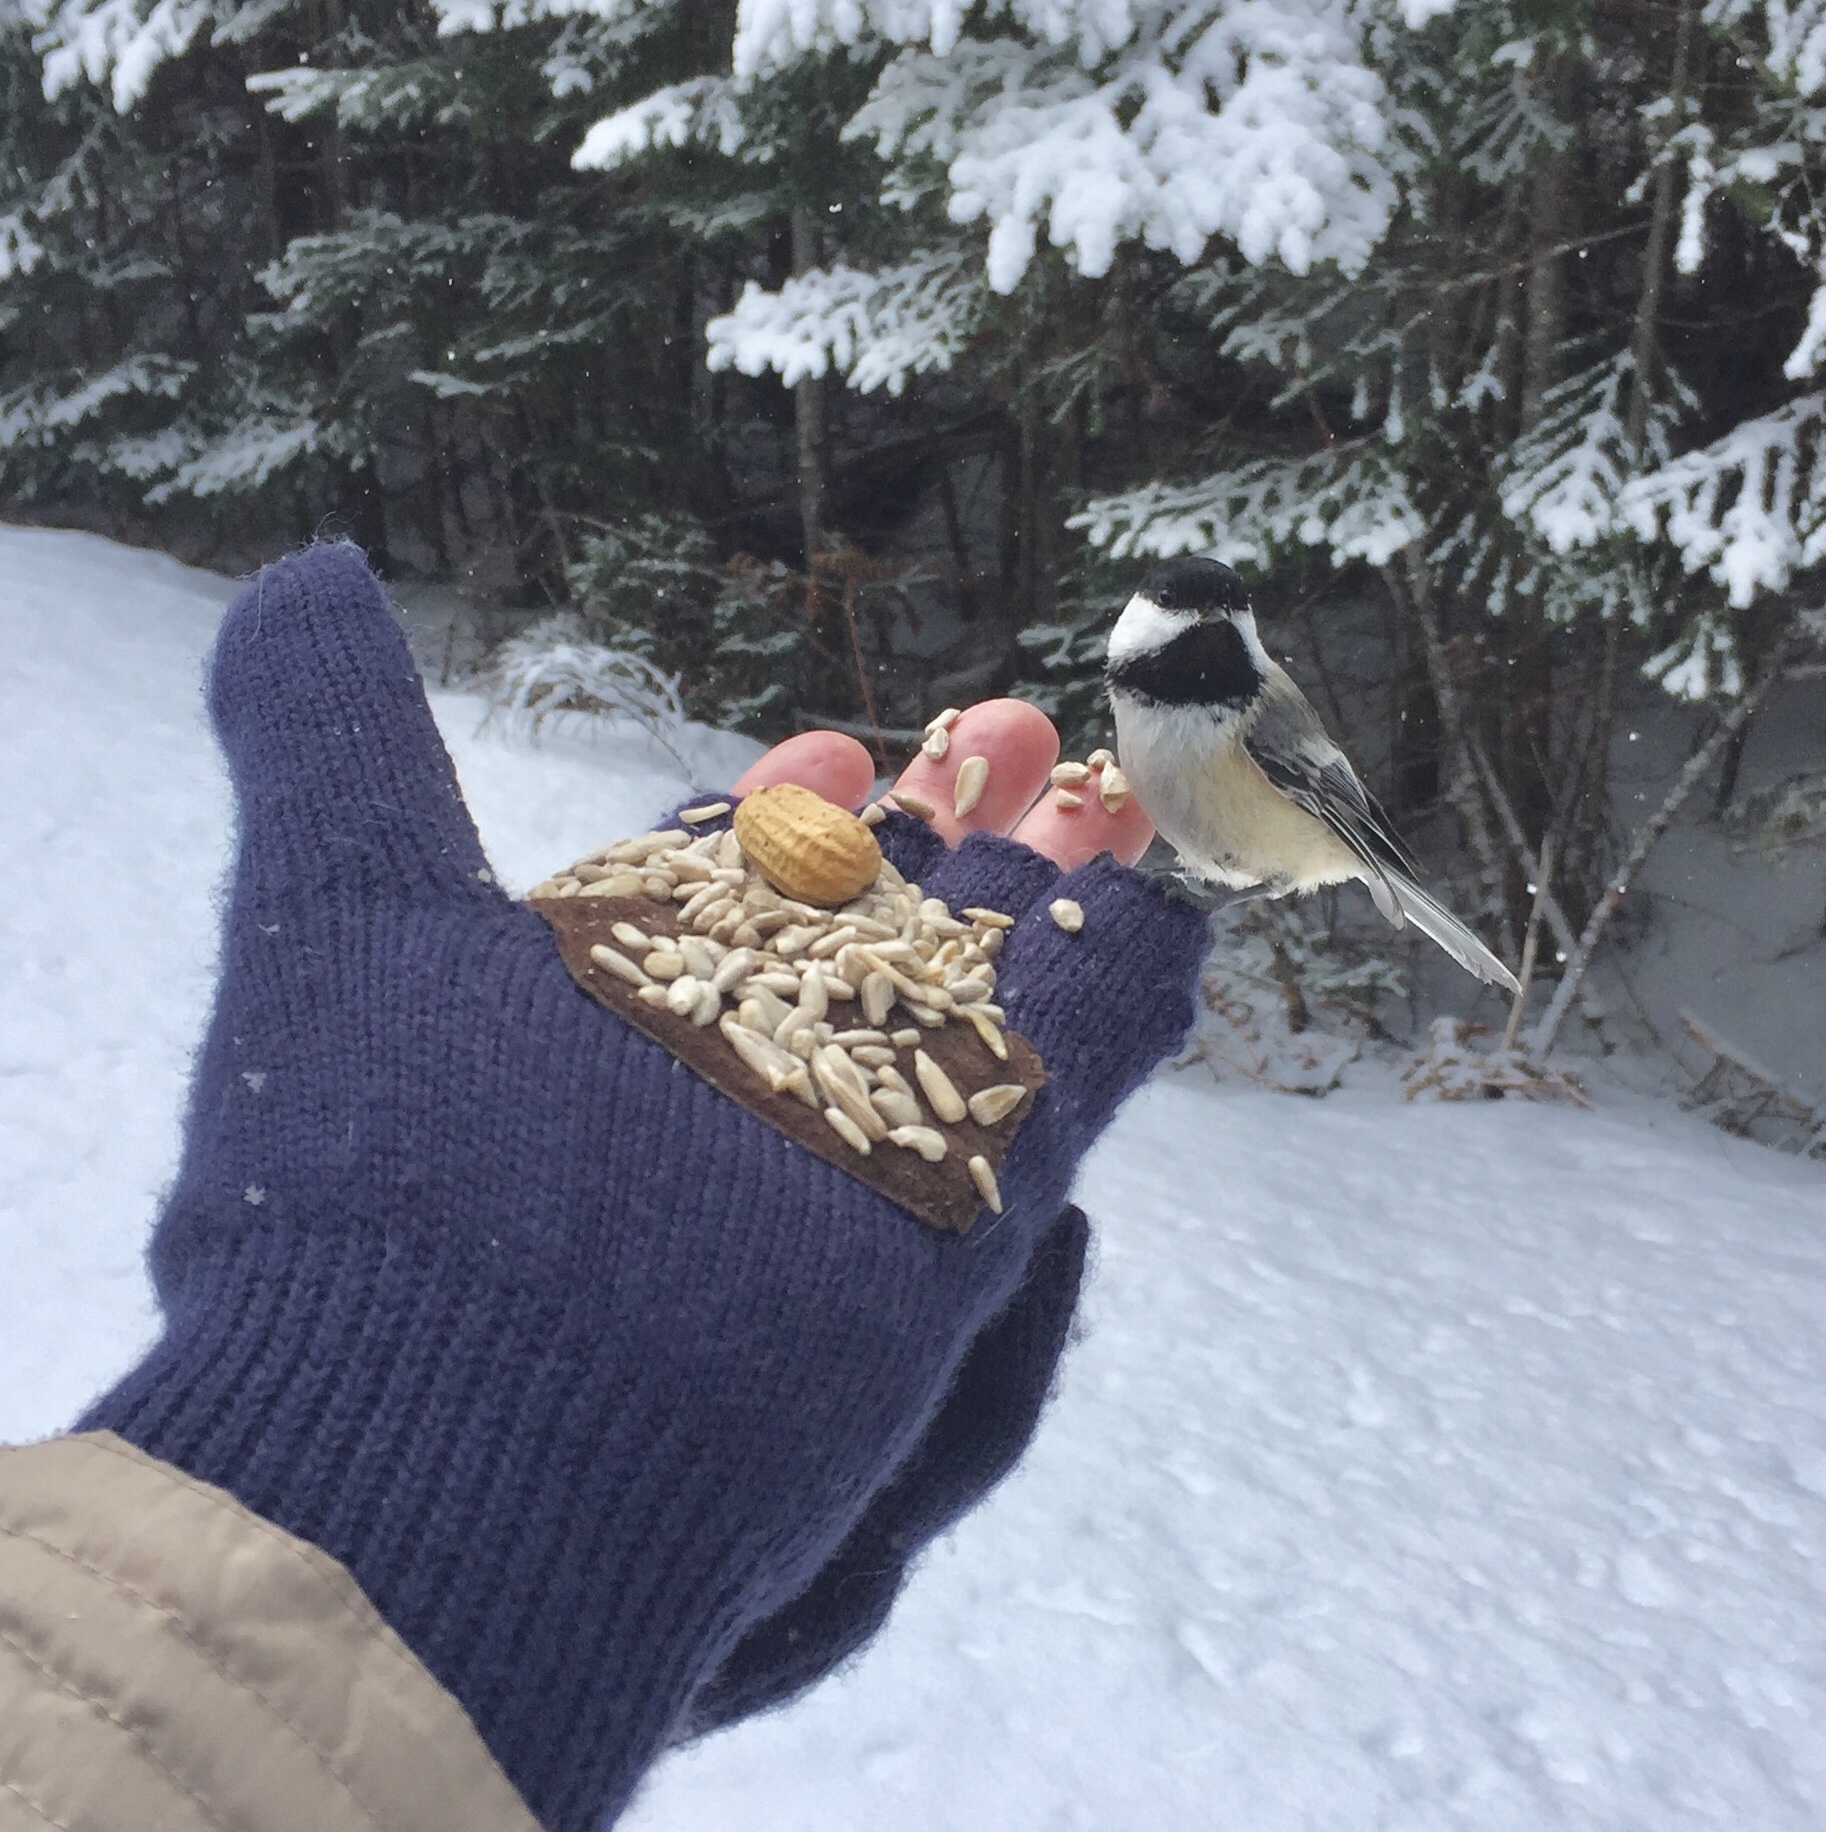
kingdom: Animalia
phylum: Chordata
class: Aves
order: Passeriformes
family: Paridae
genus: Poecile
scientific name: Poecile atricapillus
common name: Black-capped chickadee
